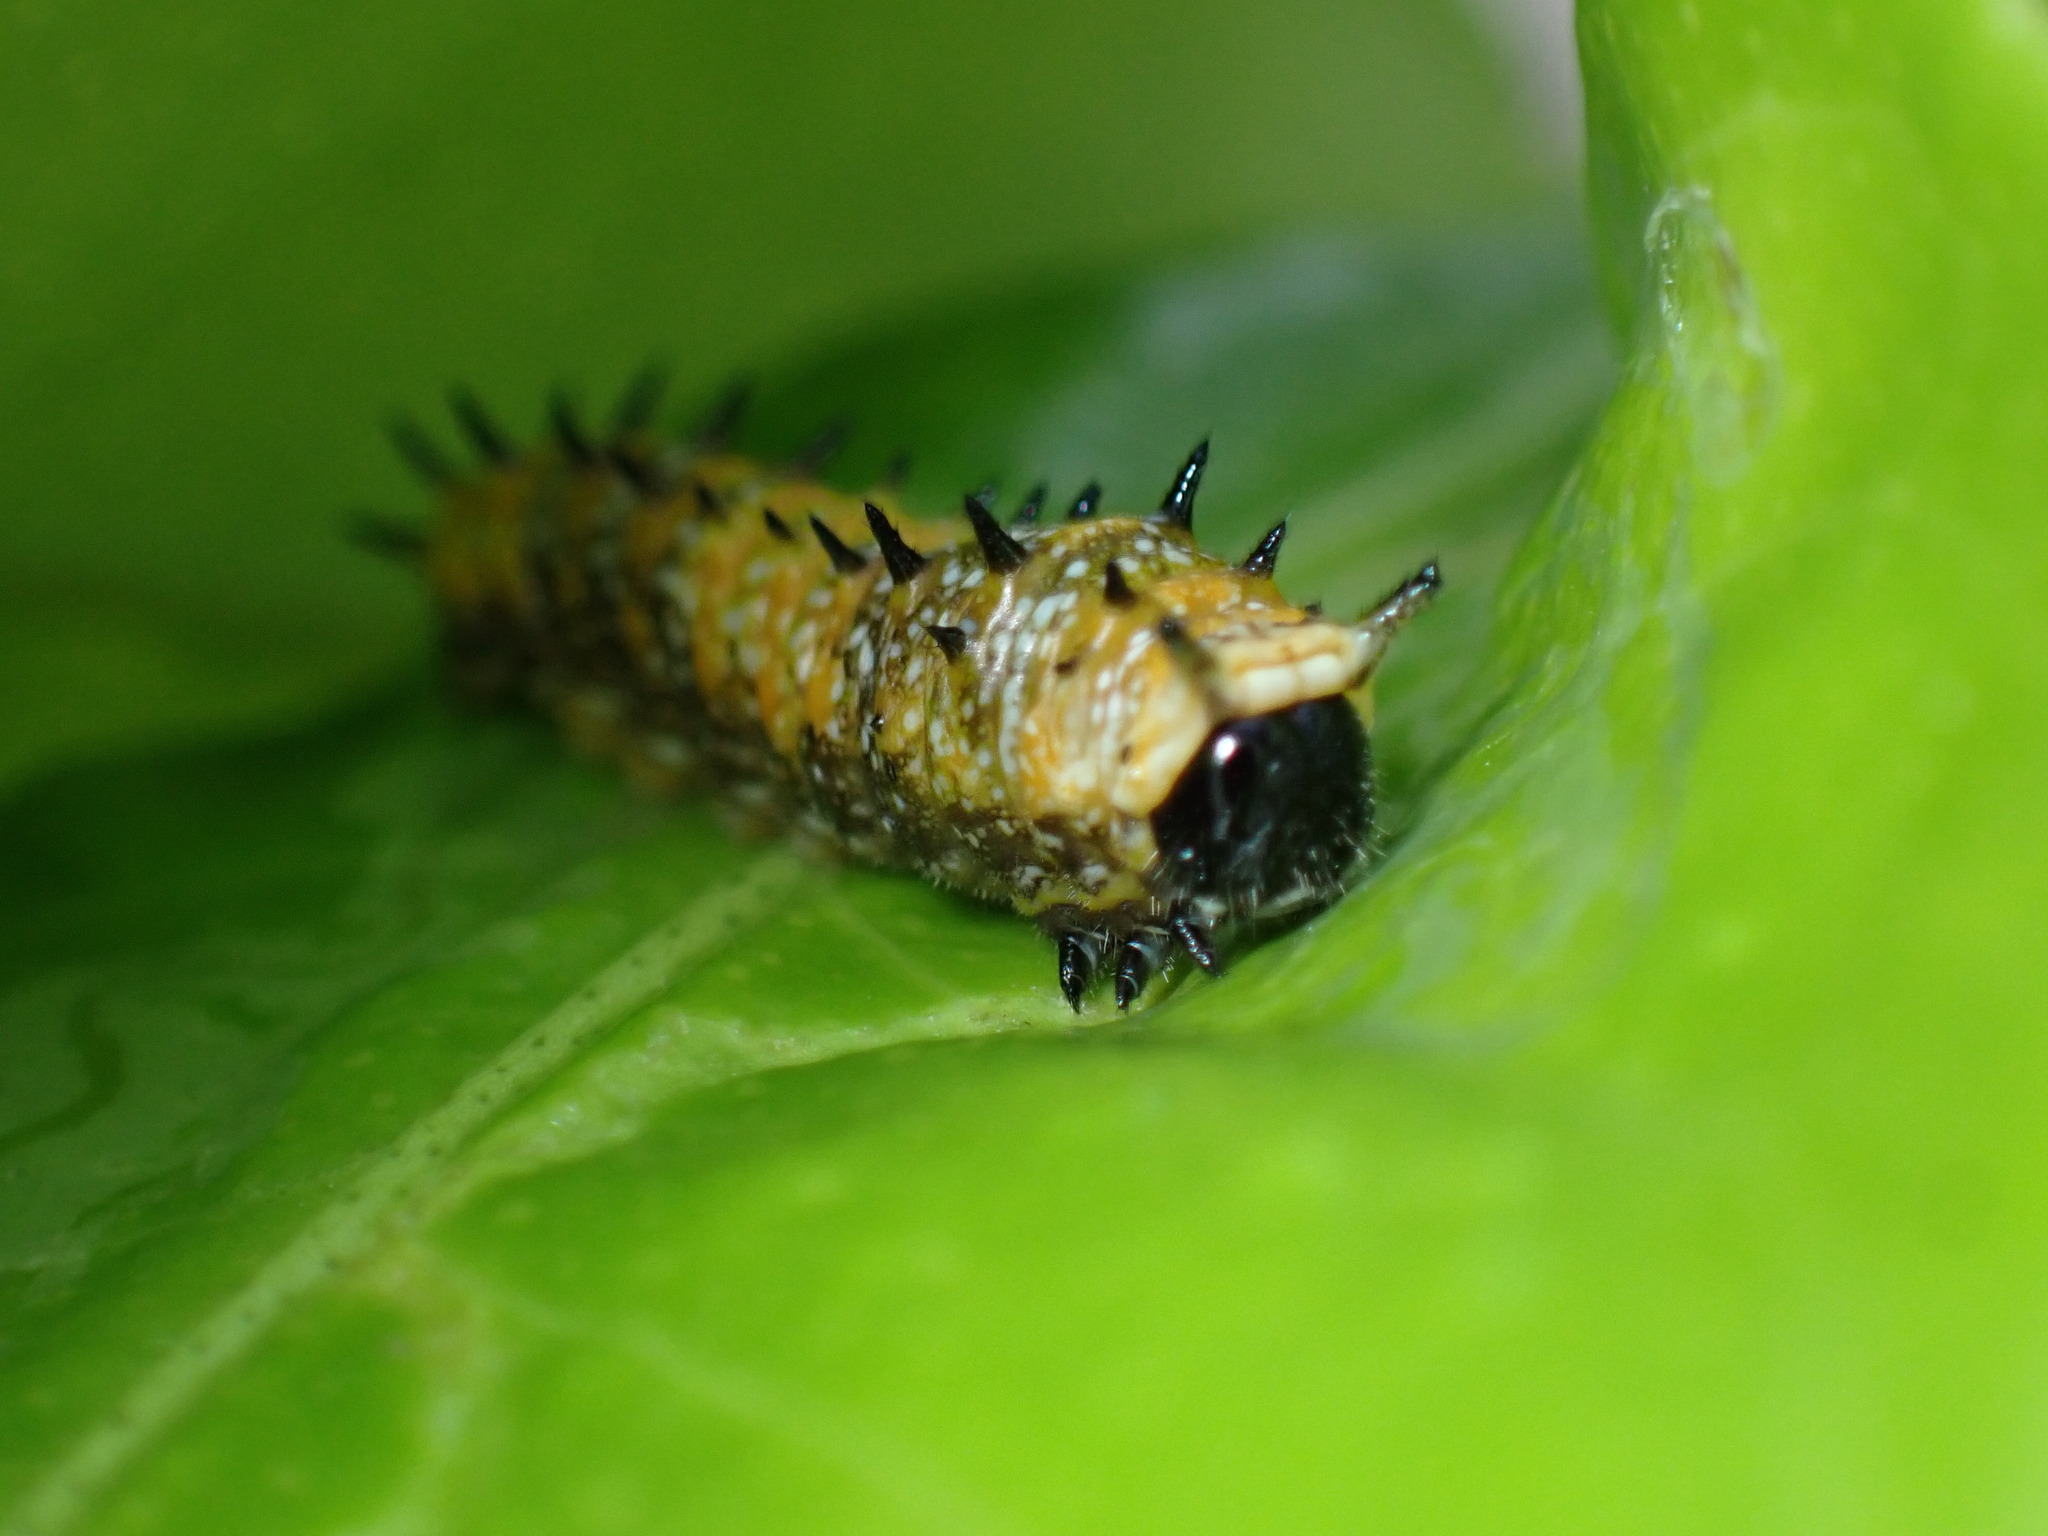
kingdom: Animalia
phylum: Arthropoda
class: Insecta
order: Lepidoptera
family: Papilionidae
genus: Papilio
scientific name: Papilio anactus
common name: Dingy swallowtail
